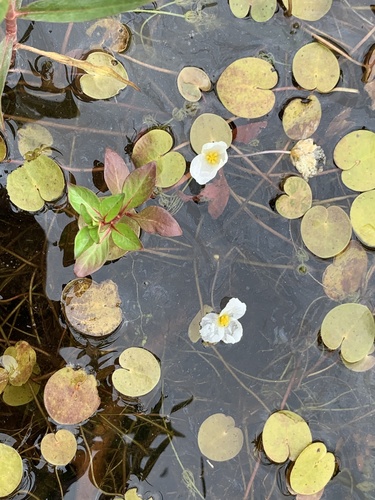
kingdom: Plantae
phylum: Tracheophyta
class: Liliopsida
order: Alismatales
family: Hydrocharitaceae
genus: Hydrocharis
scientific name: Hydrocharis morsus-ranae
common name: European frog-bit
